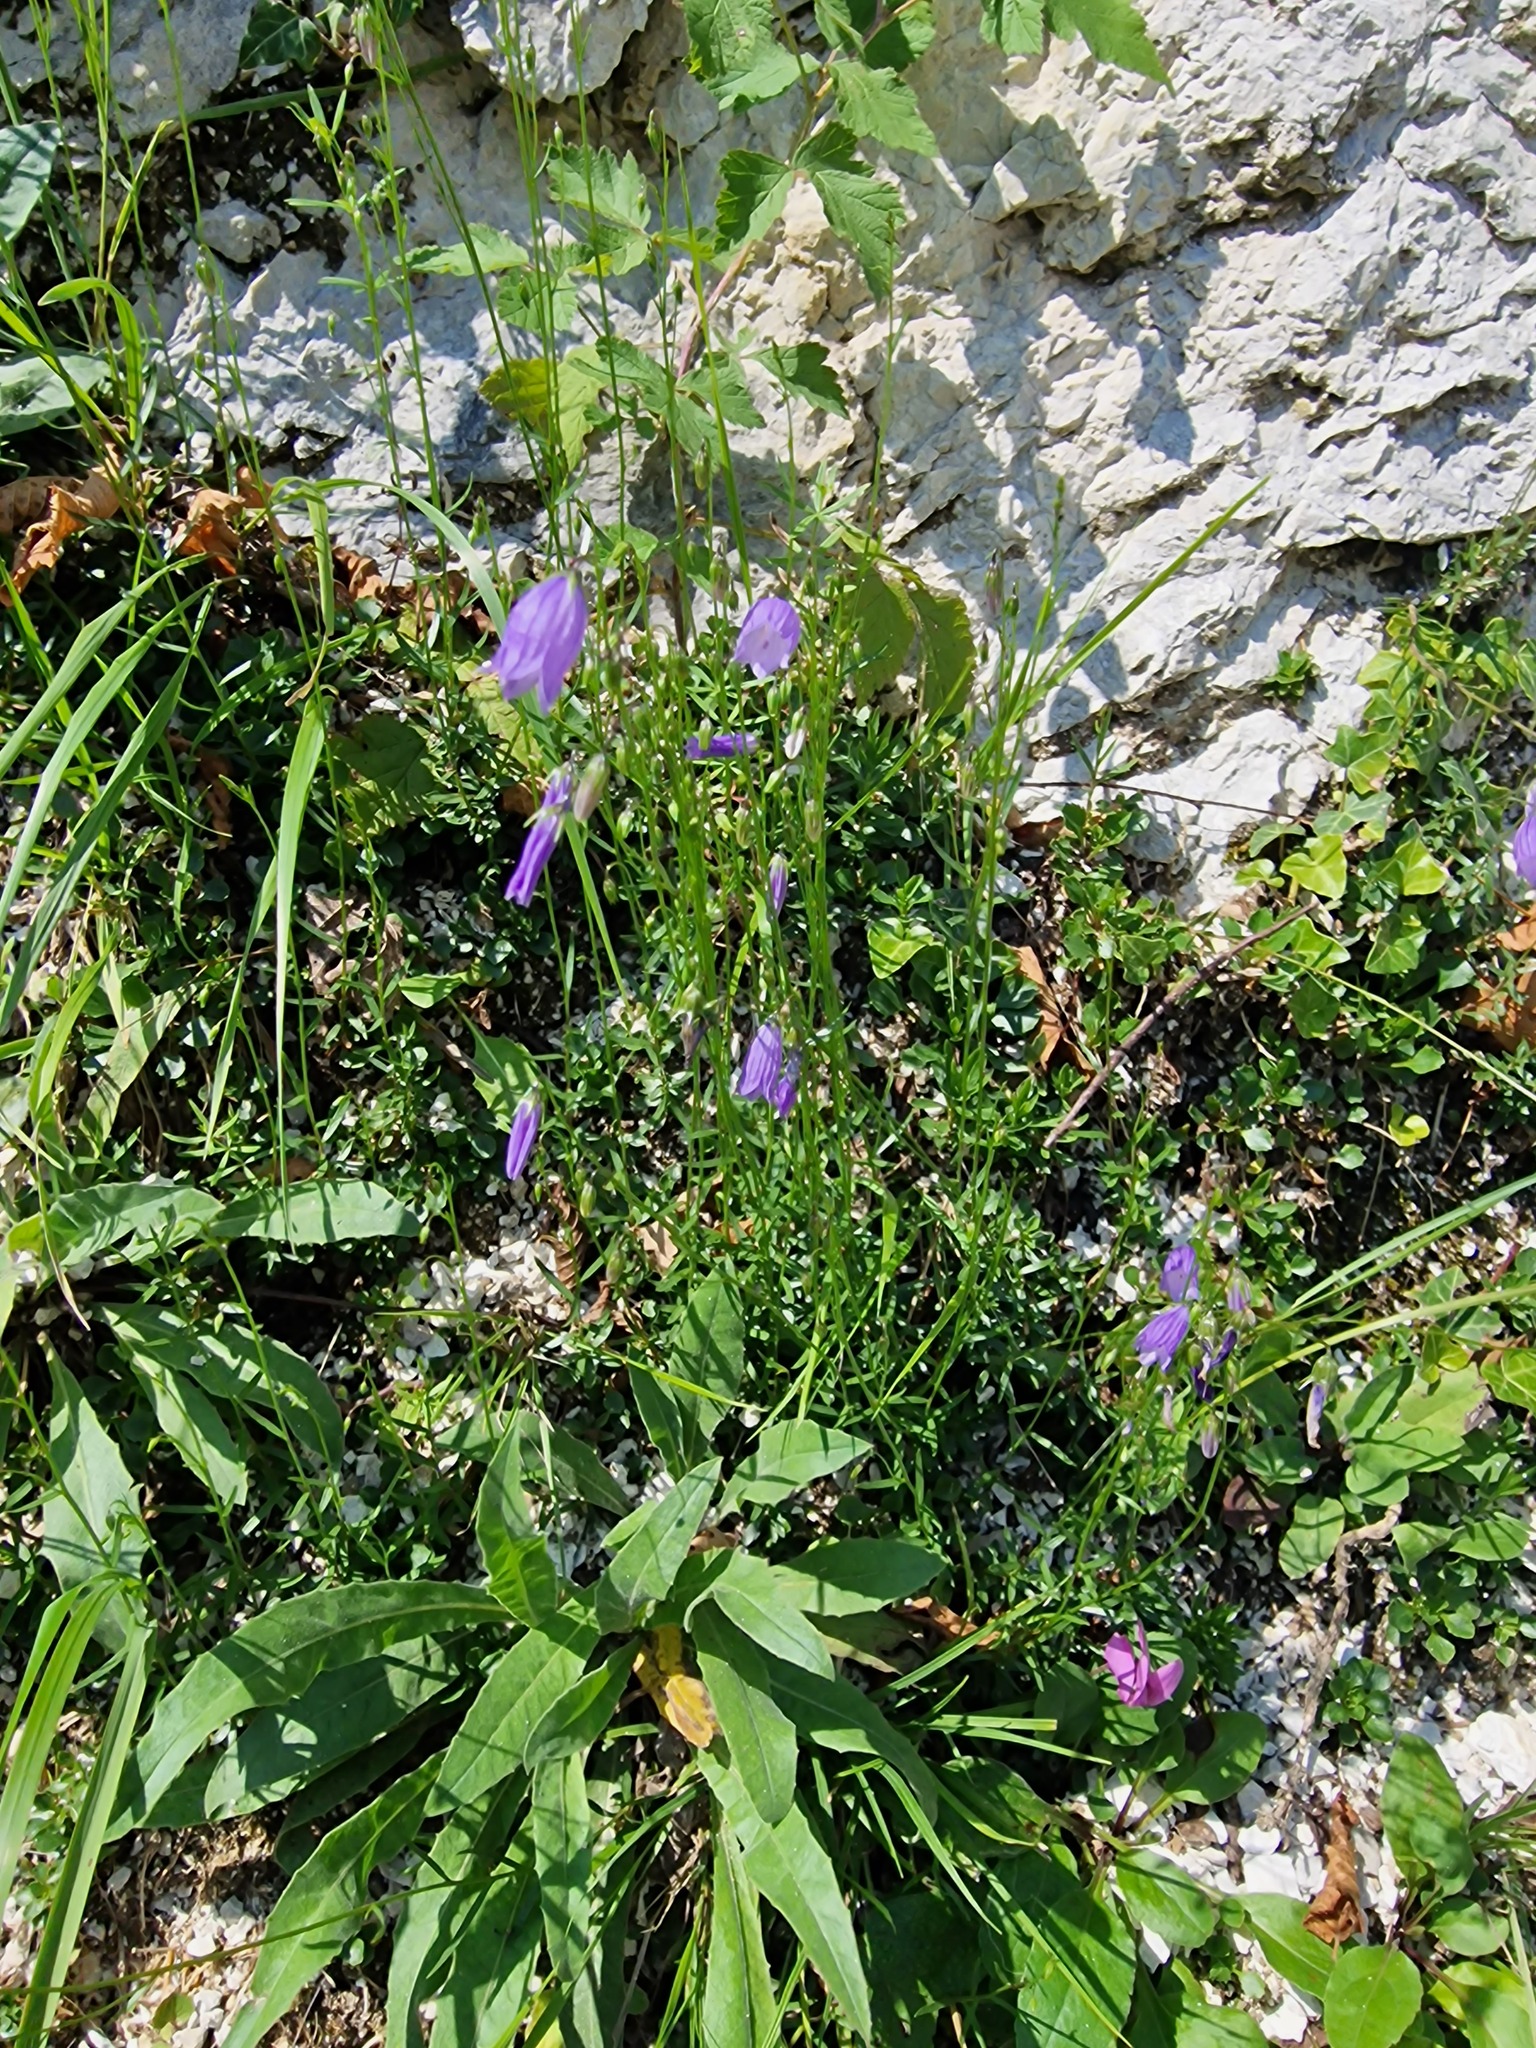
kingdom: Plantae
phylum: Tracheophyta
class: Magnoliopsida
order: Asterales
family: Campanulaceae
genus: Campanula
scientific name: Campanula cespitosa
